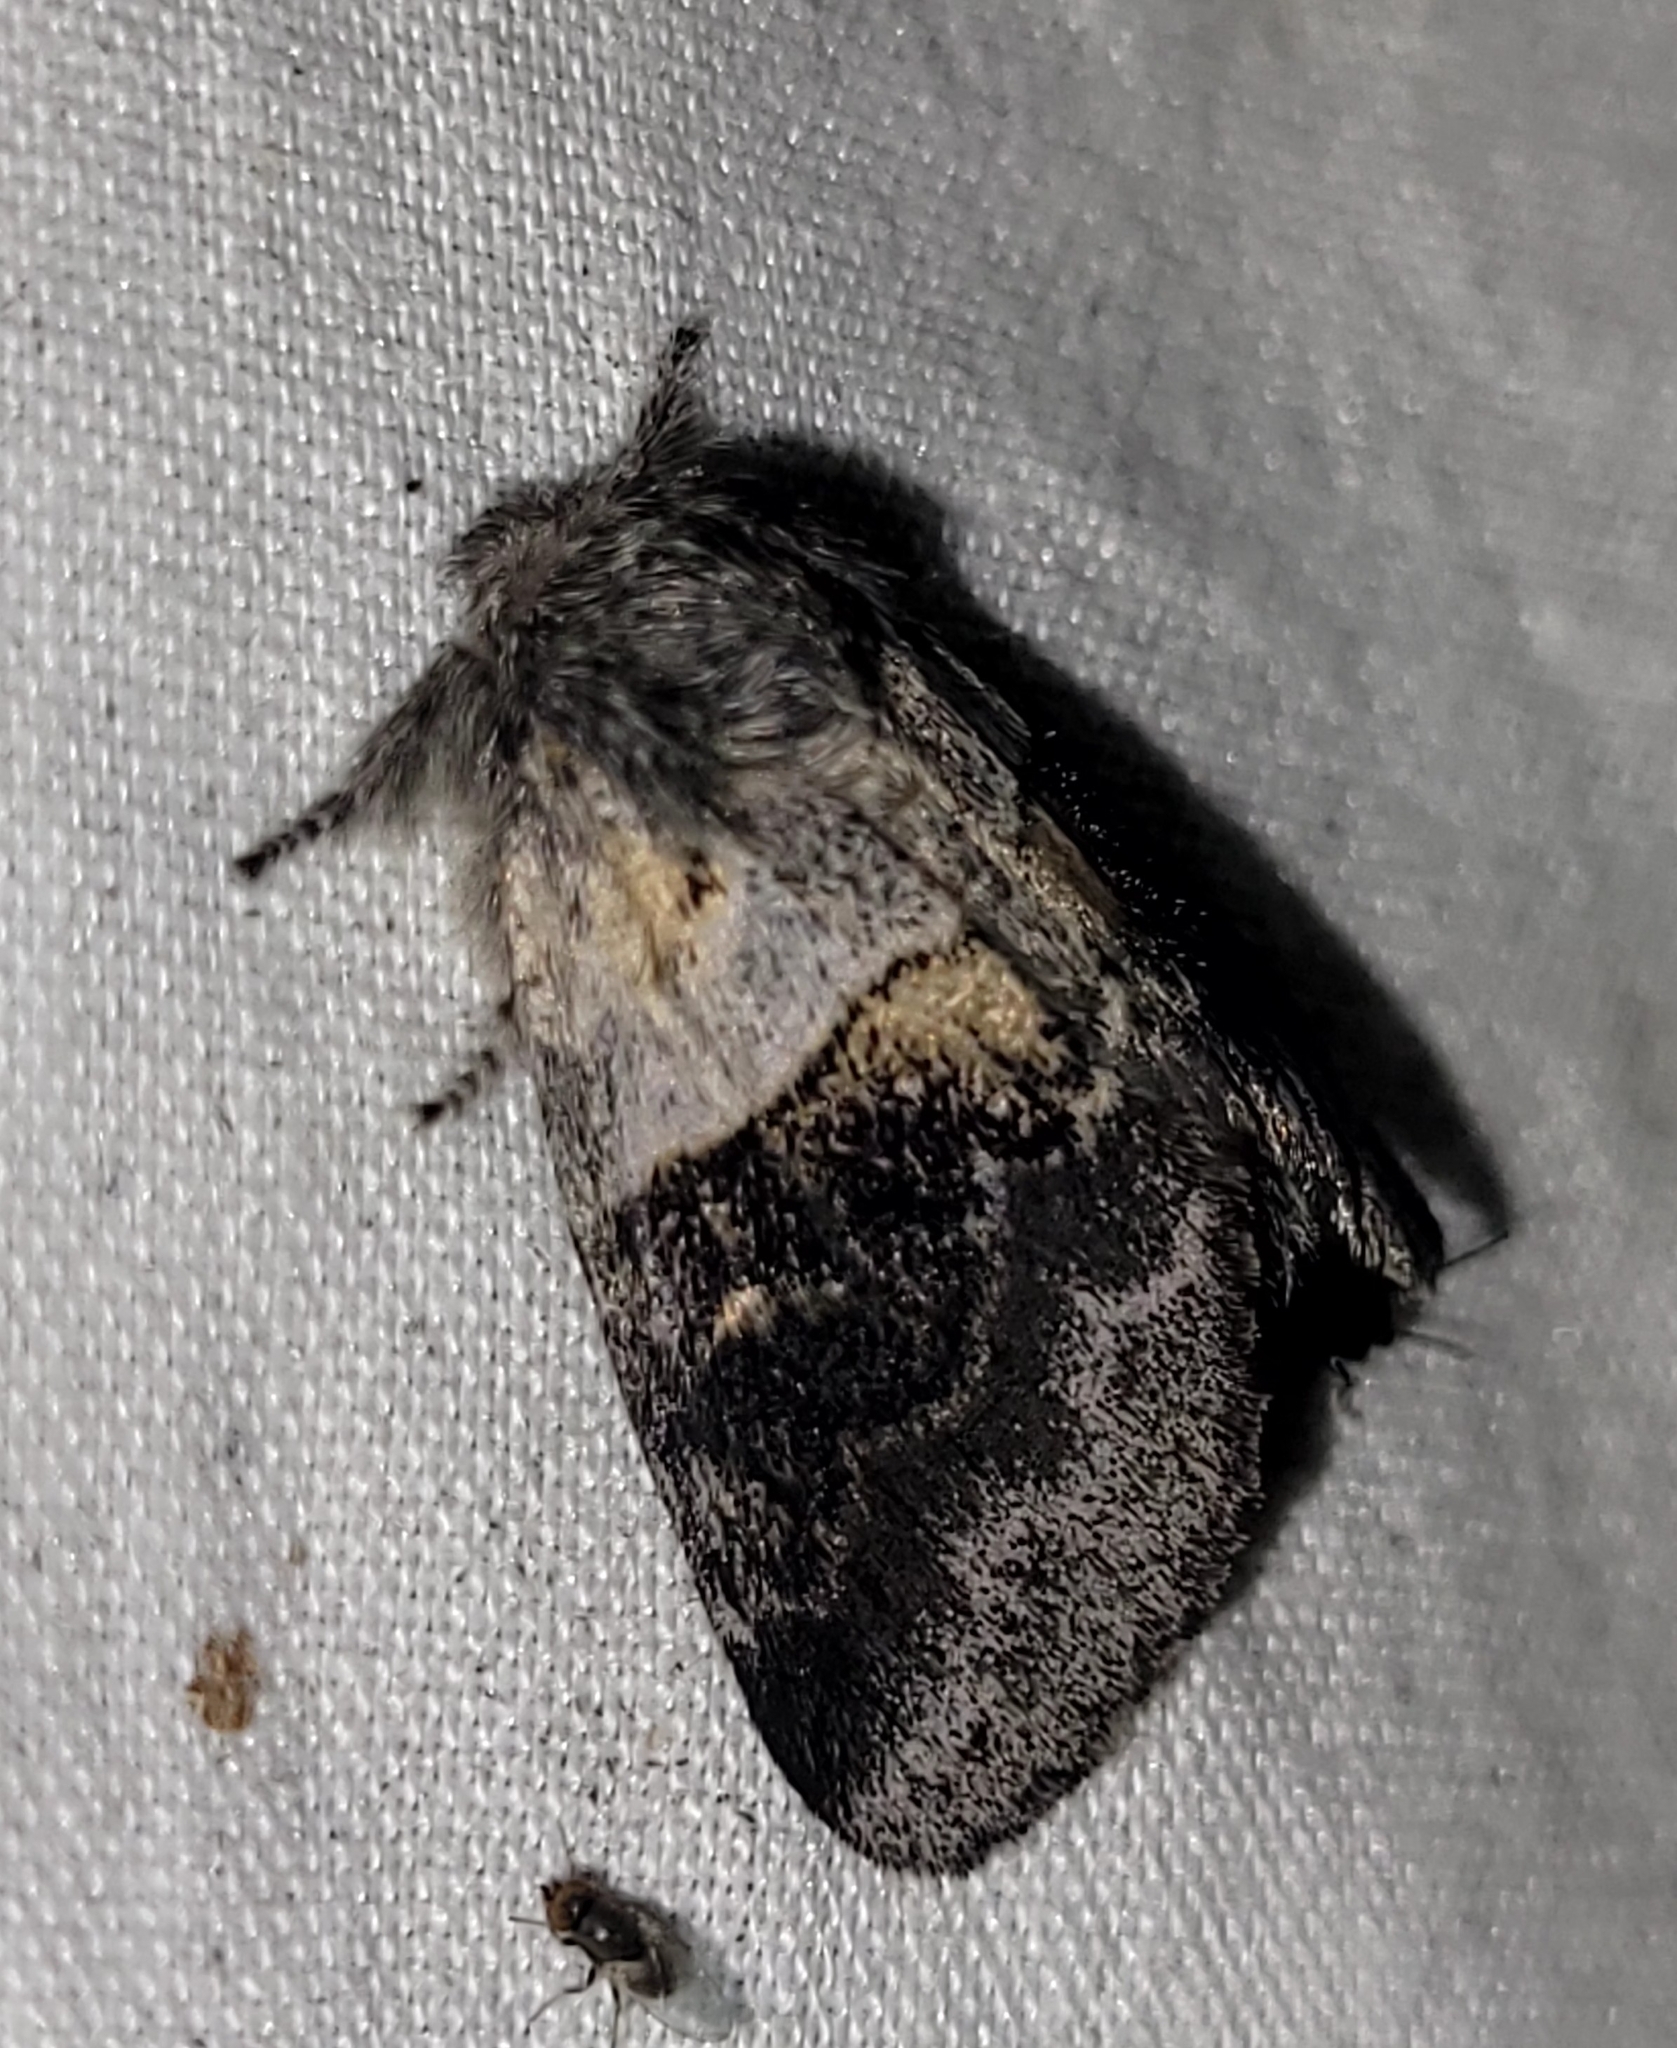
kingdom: Animalia
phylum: Arthropoda
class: Insecta
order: Lepidoptera
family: Notodontidae
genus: Gluphisia
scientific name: Gluphisia septentrionis
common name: Common gluphisia
